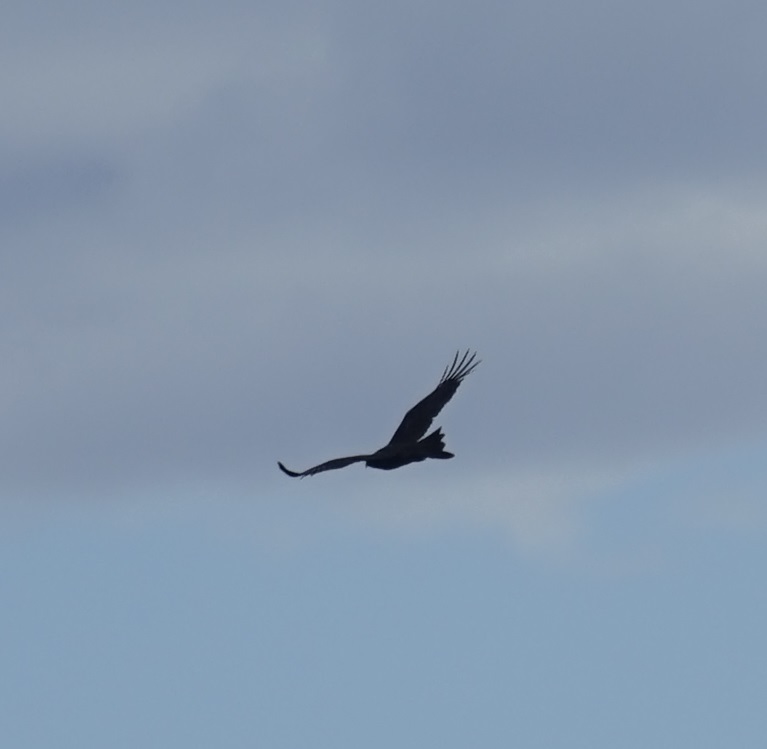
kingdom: Animalia
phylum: Chordata
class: Aves
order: Accipitriformes
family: Accipitridae
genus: Aquila
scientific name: Aquila audax
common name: Wedge-tailed eagle
